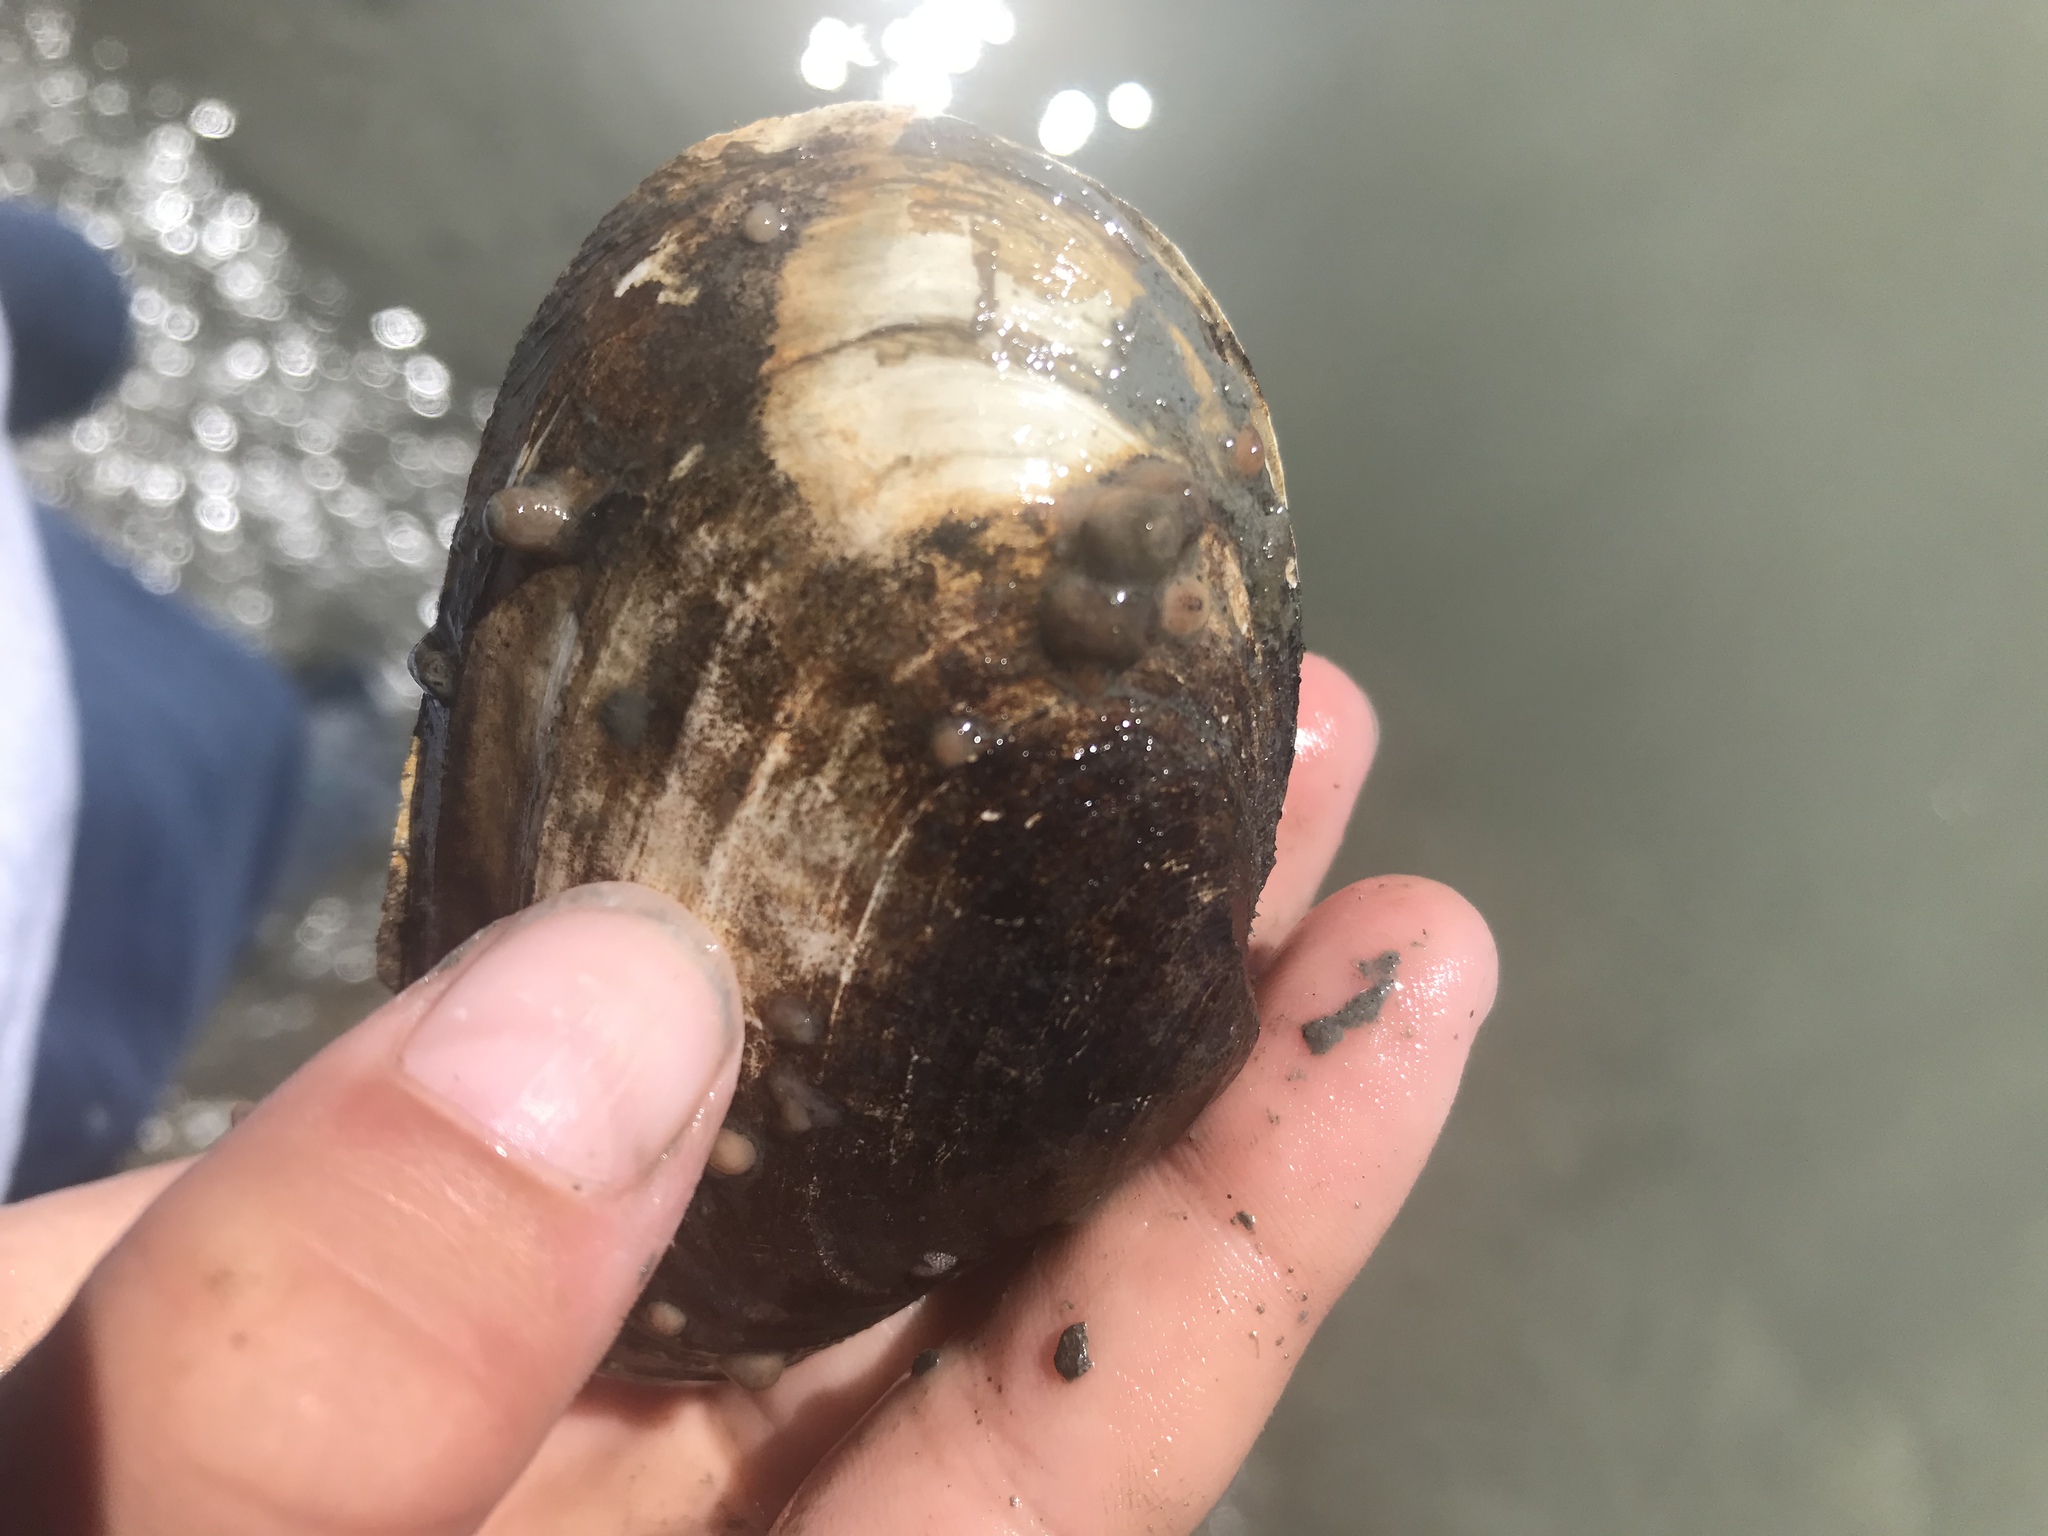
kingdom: Animalia
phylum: Mollusca
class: Bivalvia
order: Myida
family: Myidae
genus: Mya
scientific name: Mya arenaria
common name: Soft-shelled clam
